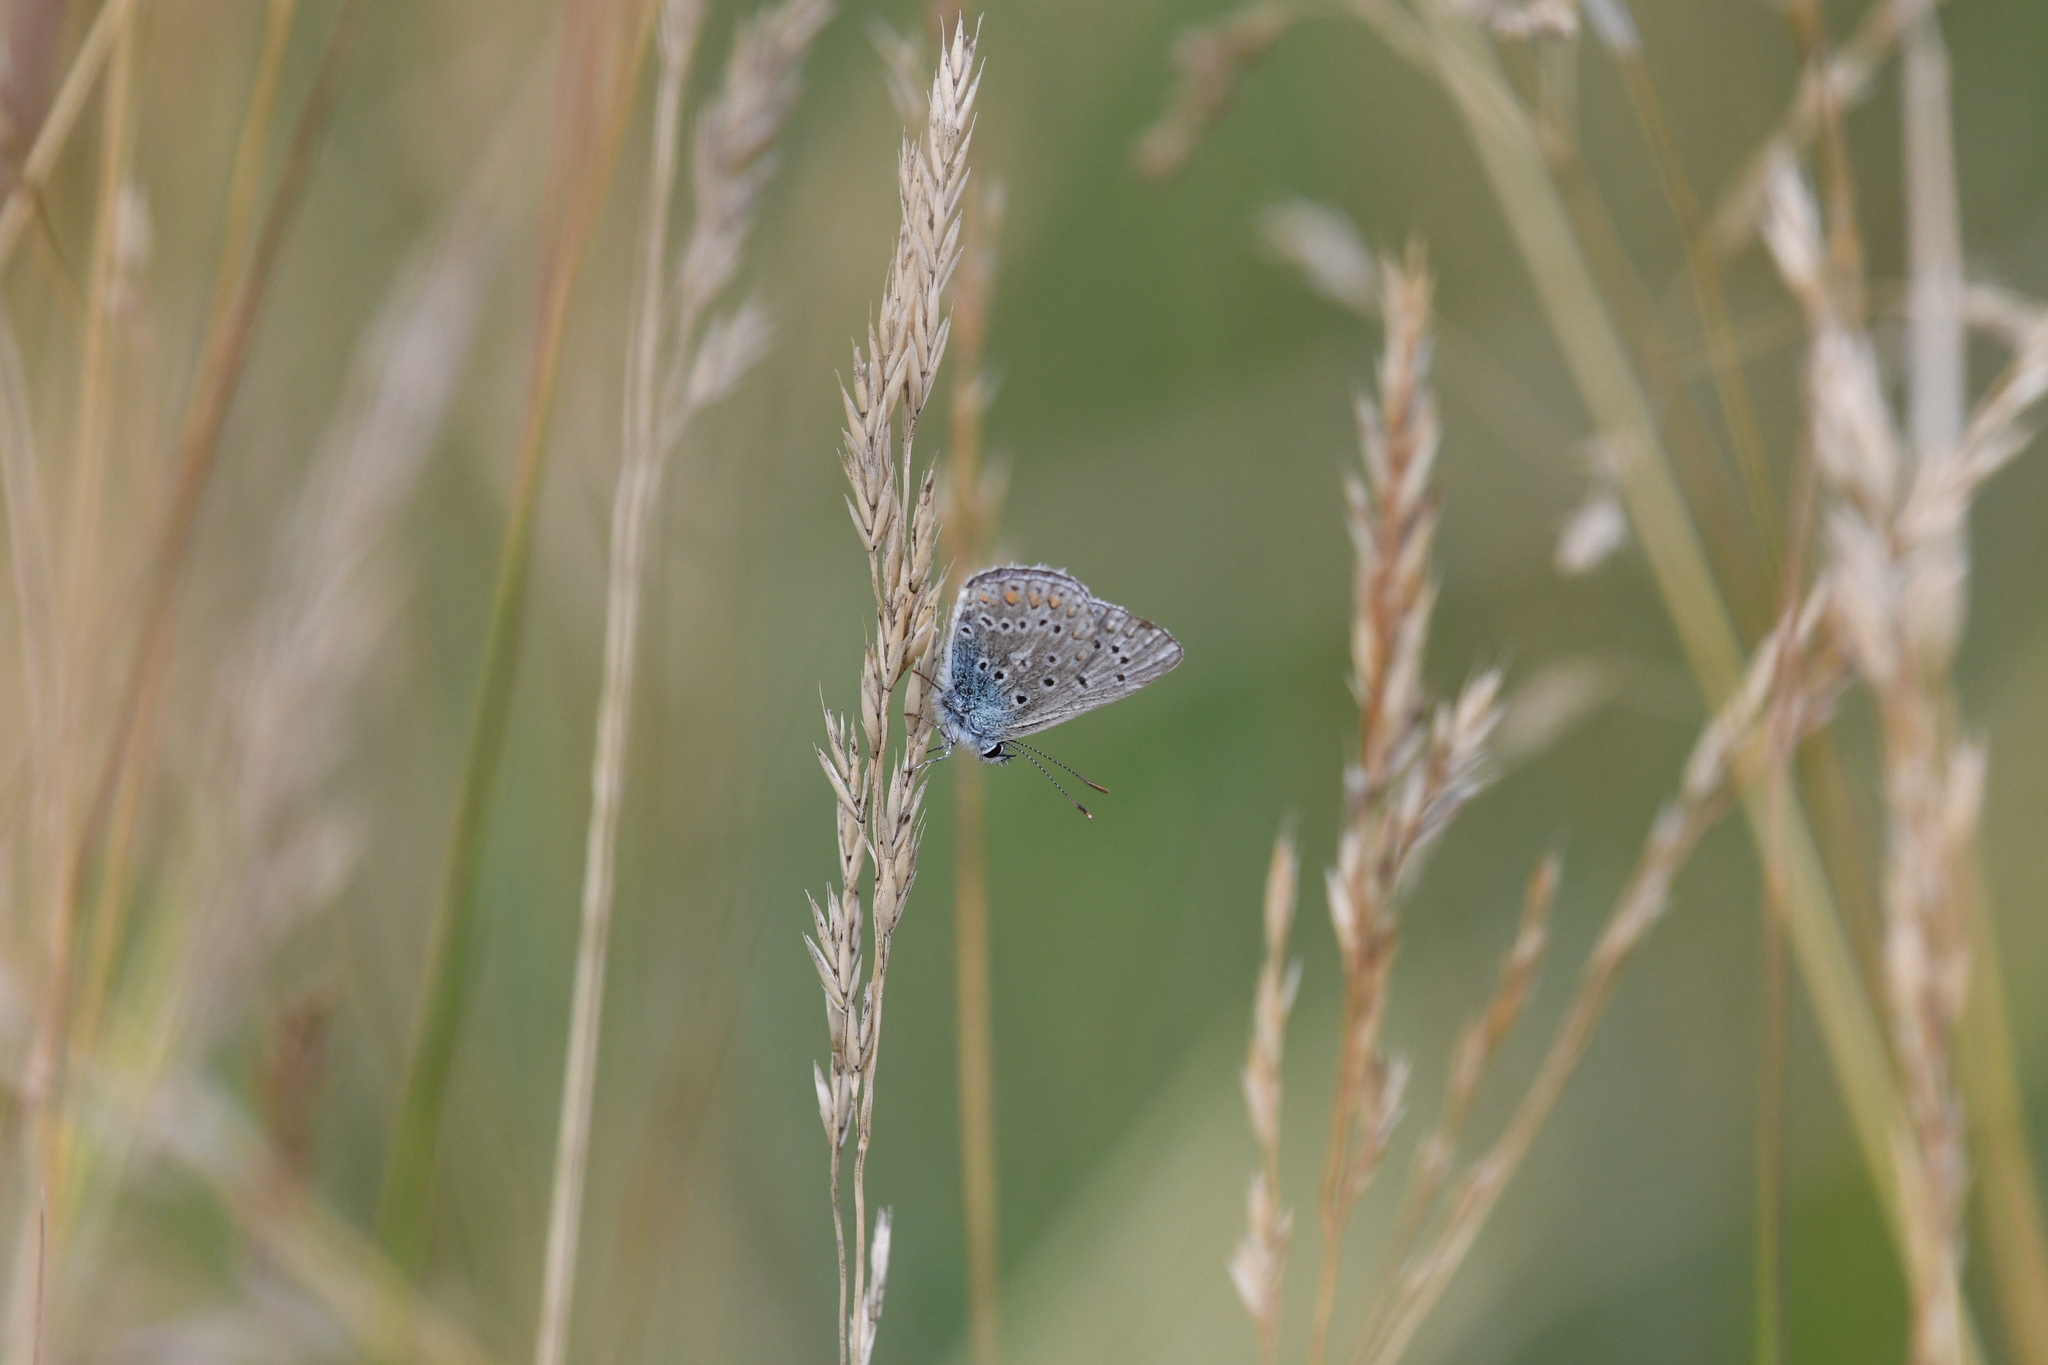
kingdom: Animalia
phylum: Arthropoda
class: Insecta
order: Lepidoptera
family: Lycaenidae
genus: Polyommatus
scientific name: Polyommatus icarus
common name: Common blue
